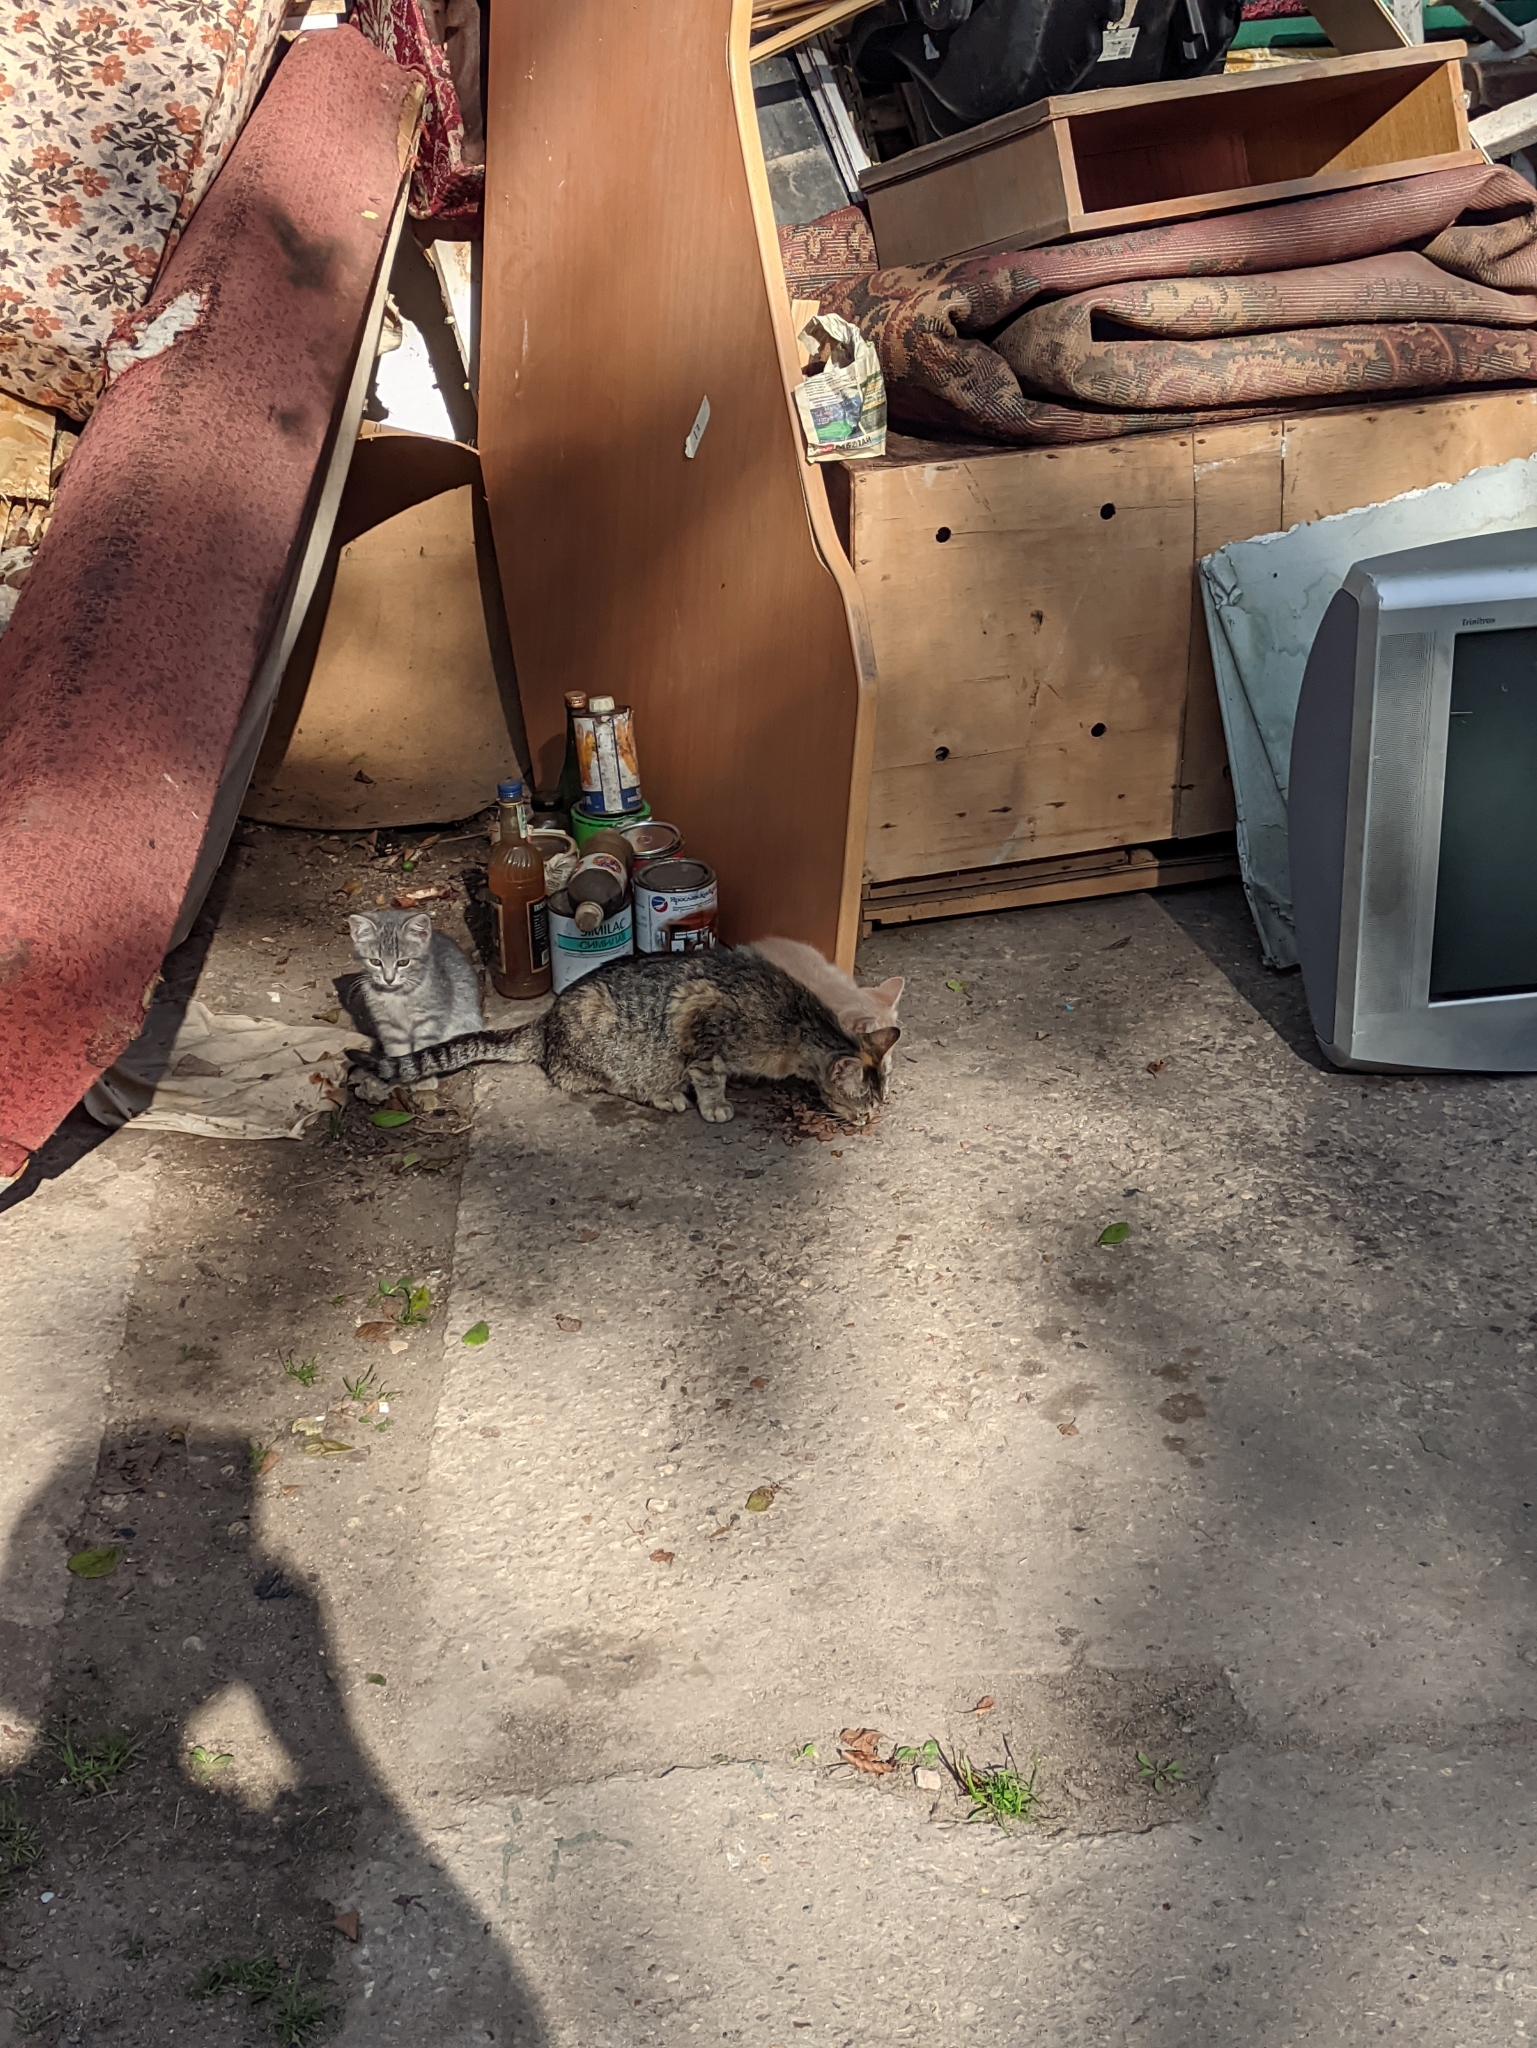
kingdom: Animalia
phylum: Chordata
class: Mammalia
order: Carnivora
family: Felidae
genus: Felis
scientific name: Felis catus
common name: Domestic cat
